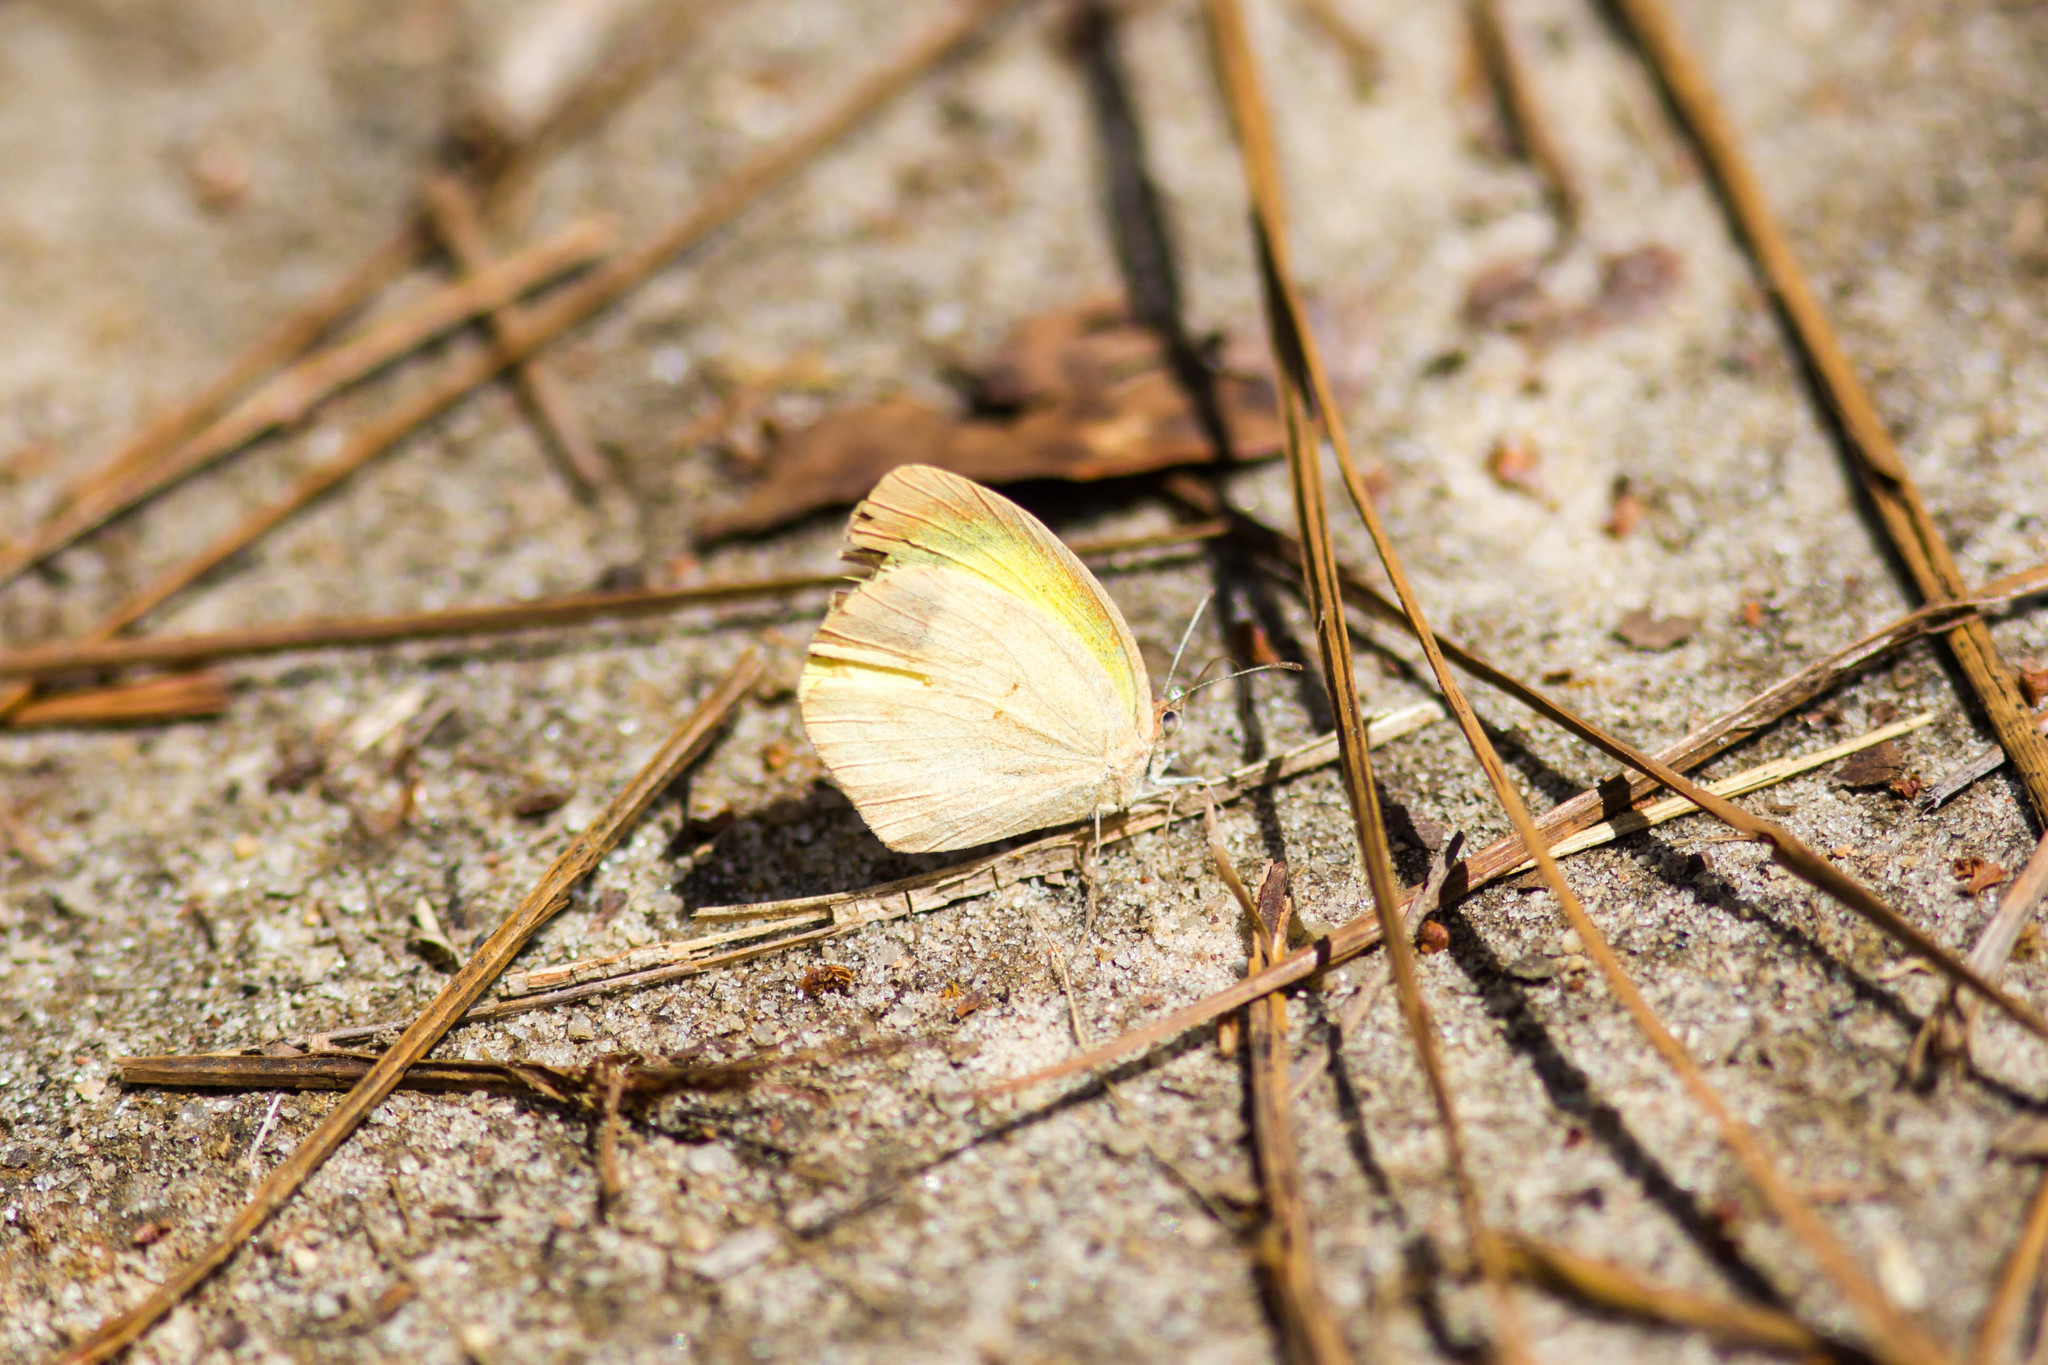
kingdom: Animalia
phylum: Arthropoda
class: Insecta
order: Lepidoptera
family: Pieridae
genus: Eurema
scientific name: Eurema daira
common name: Barred sulphur
